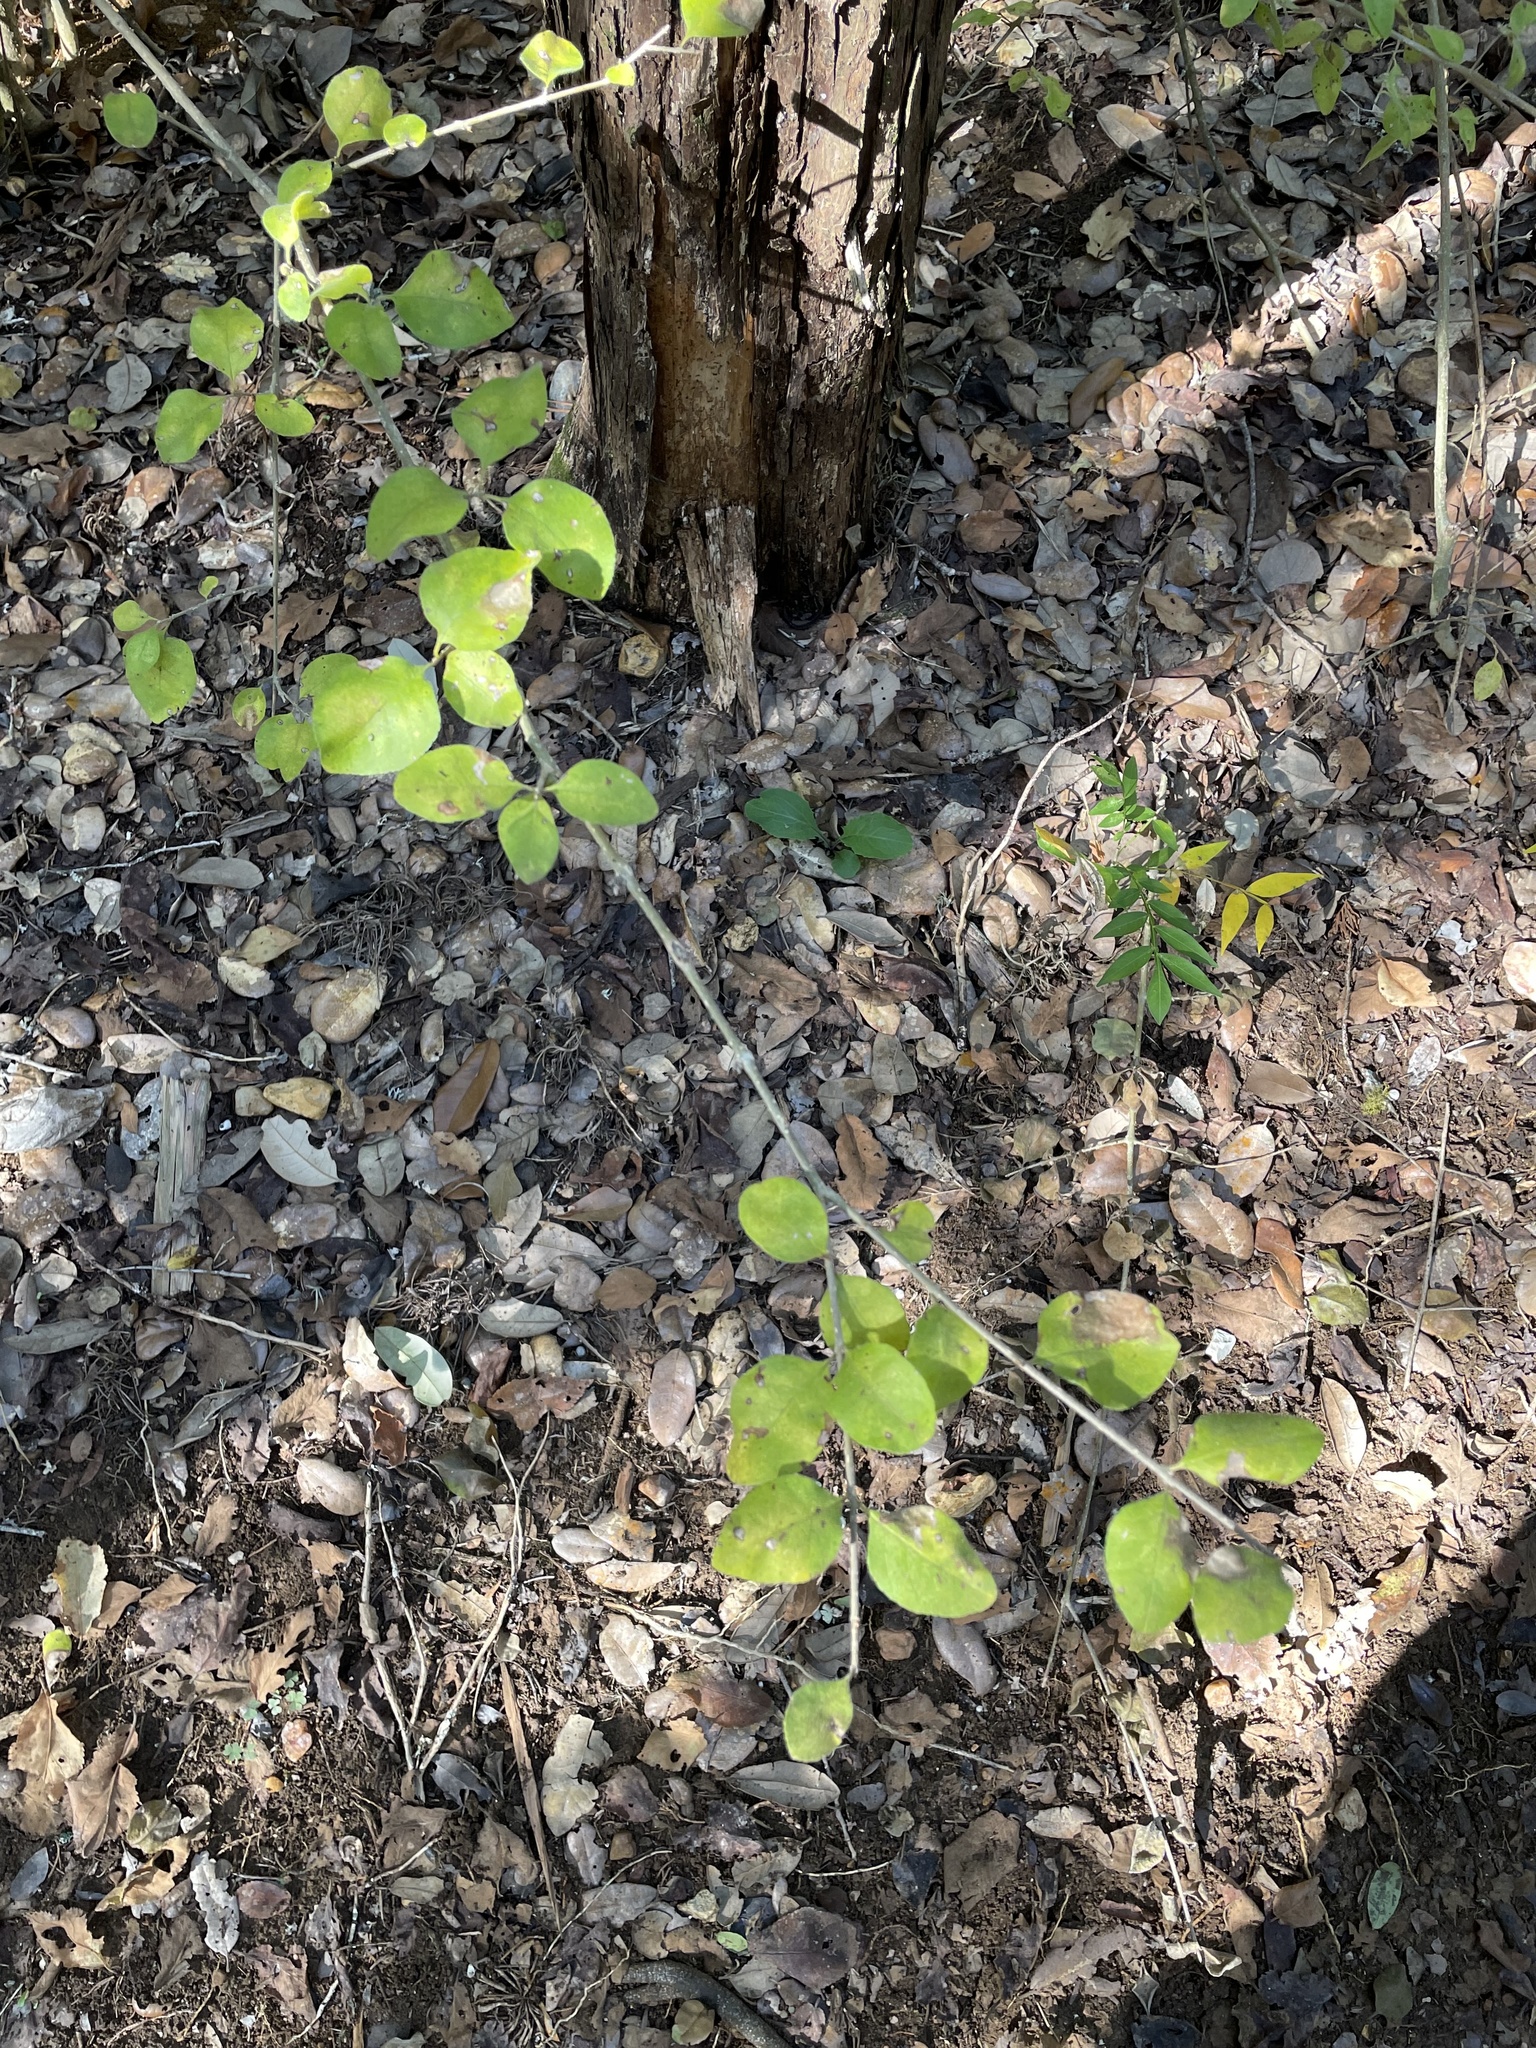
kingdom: Plantae
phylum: Tracheophyta
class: Magnoliopsida
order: Lamiales
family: Oleaceae
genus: Forestiera
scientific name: Forestiera pubescens
